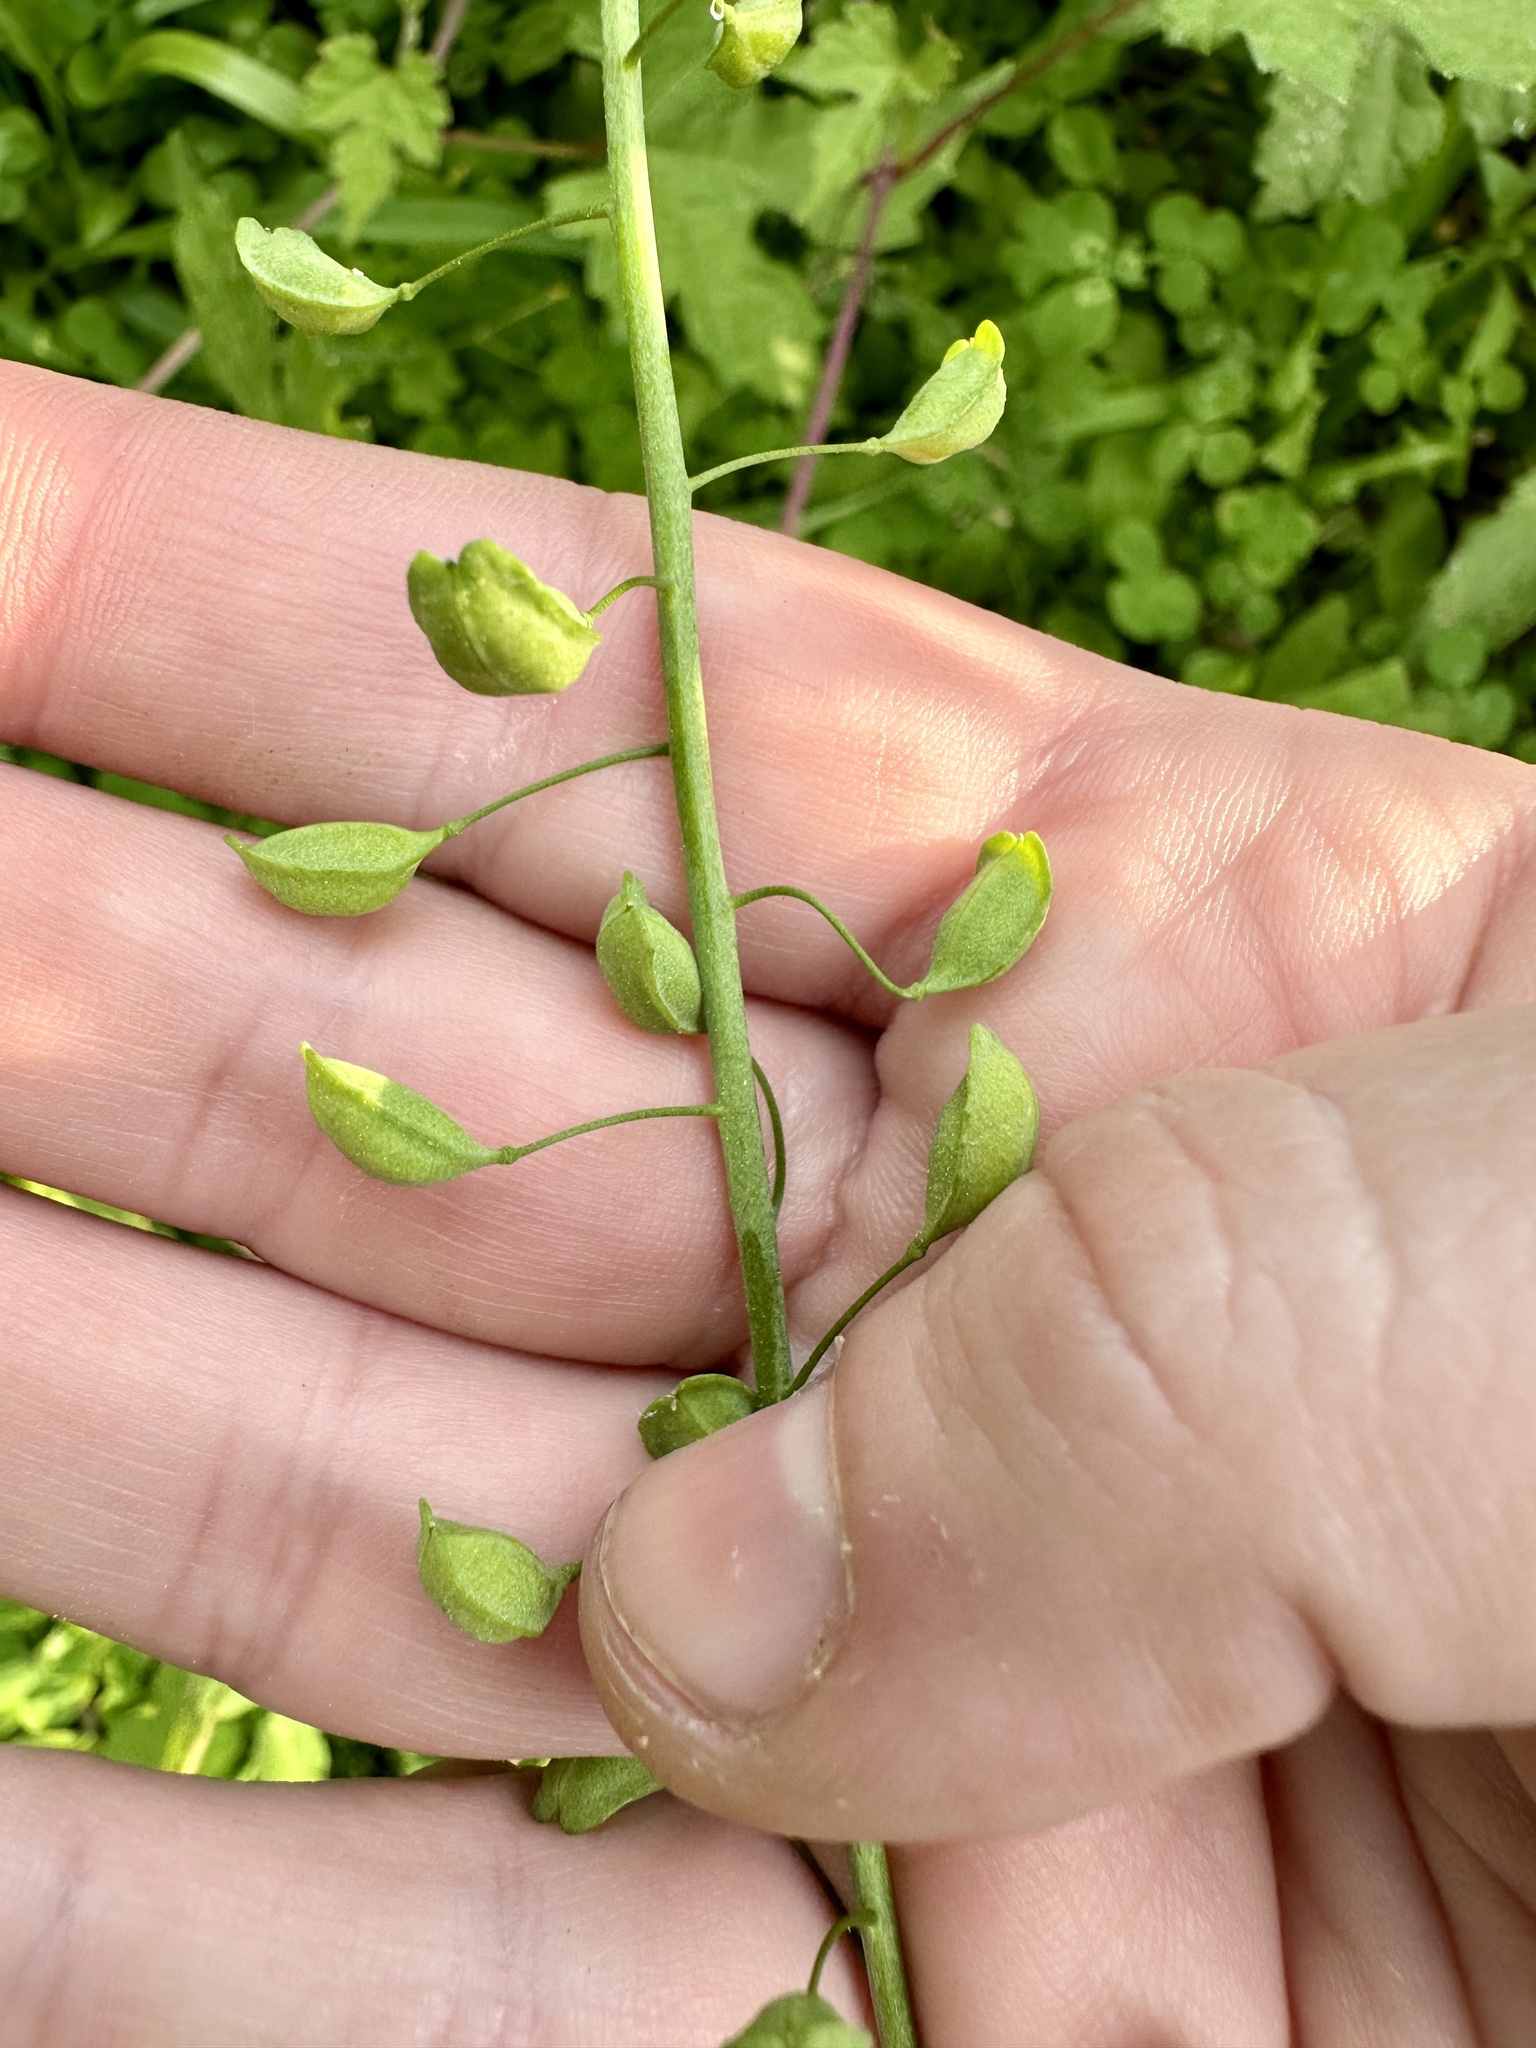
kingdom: Plantae
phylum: Tracheophyta
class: Magnoliopsida
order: Brassicales
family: Brassicaceae
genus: Mummenhoffia
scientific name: Mummenhoffia alliacea
